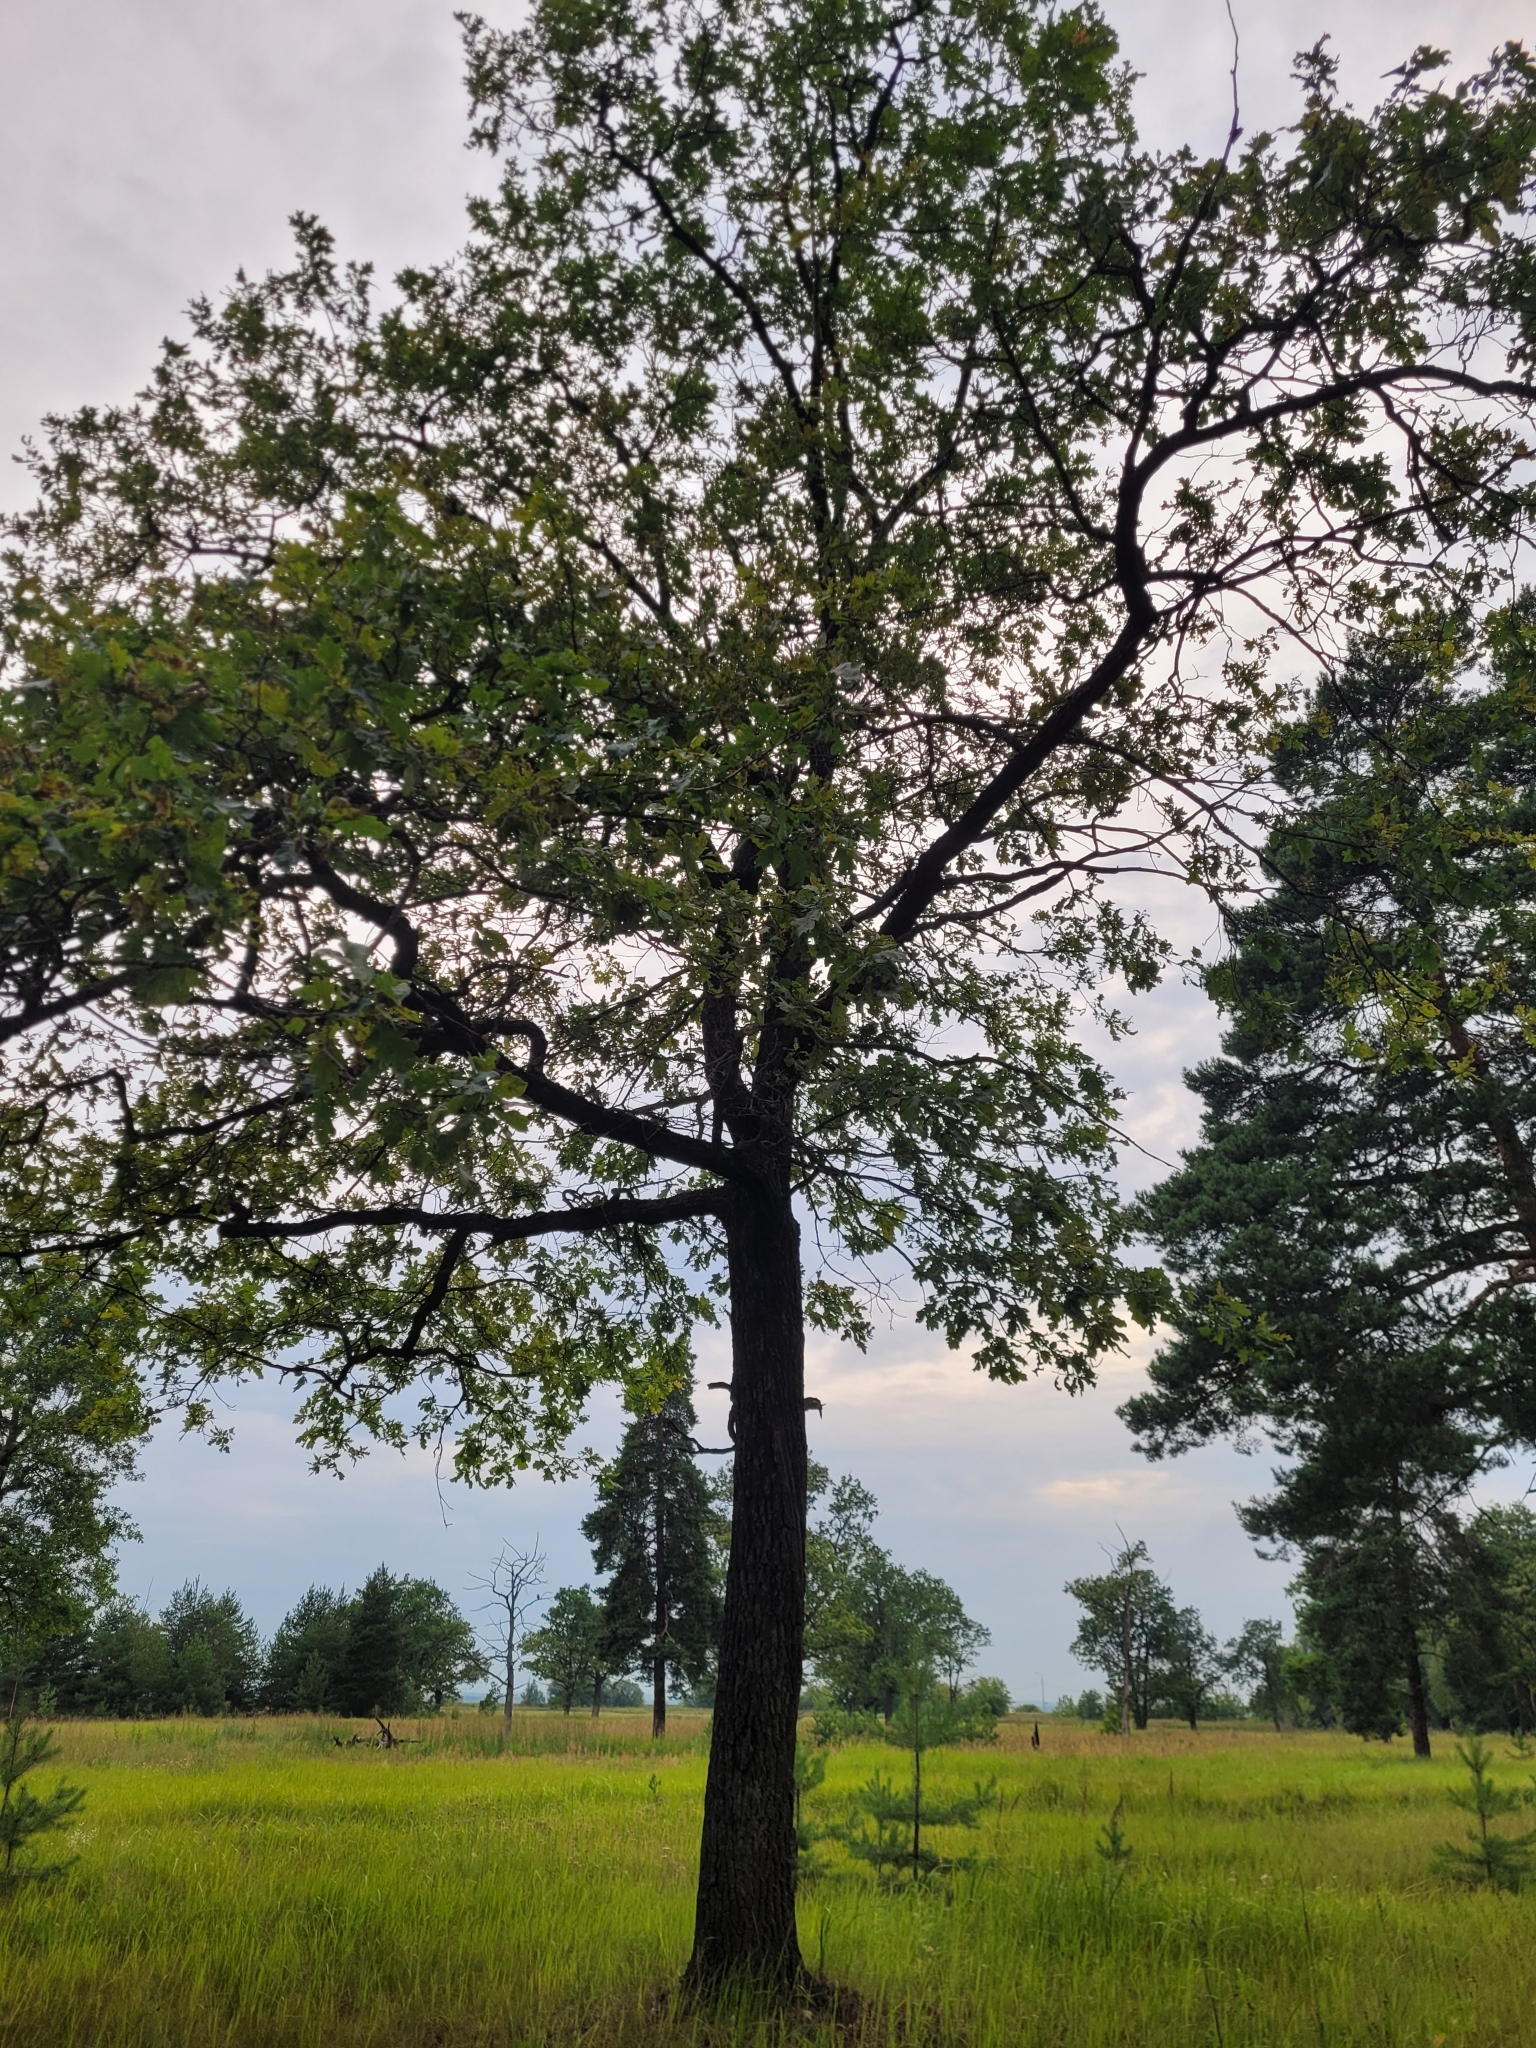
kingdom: Plantae
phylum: Tracheophyta
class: Magnoliopsida
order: Fagales
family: Fagaceae
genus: Quercus
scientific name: Quercus robur
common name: Pedunculate oak
